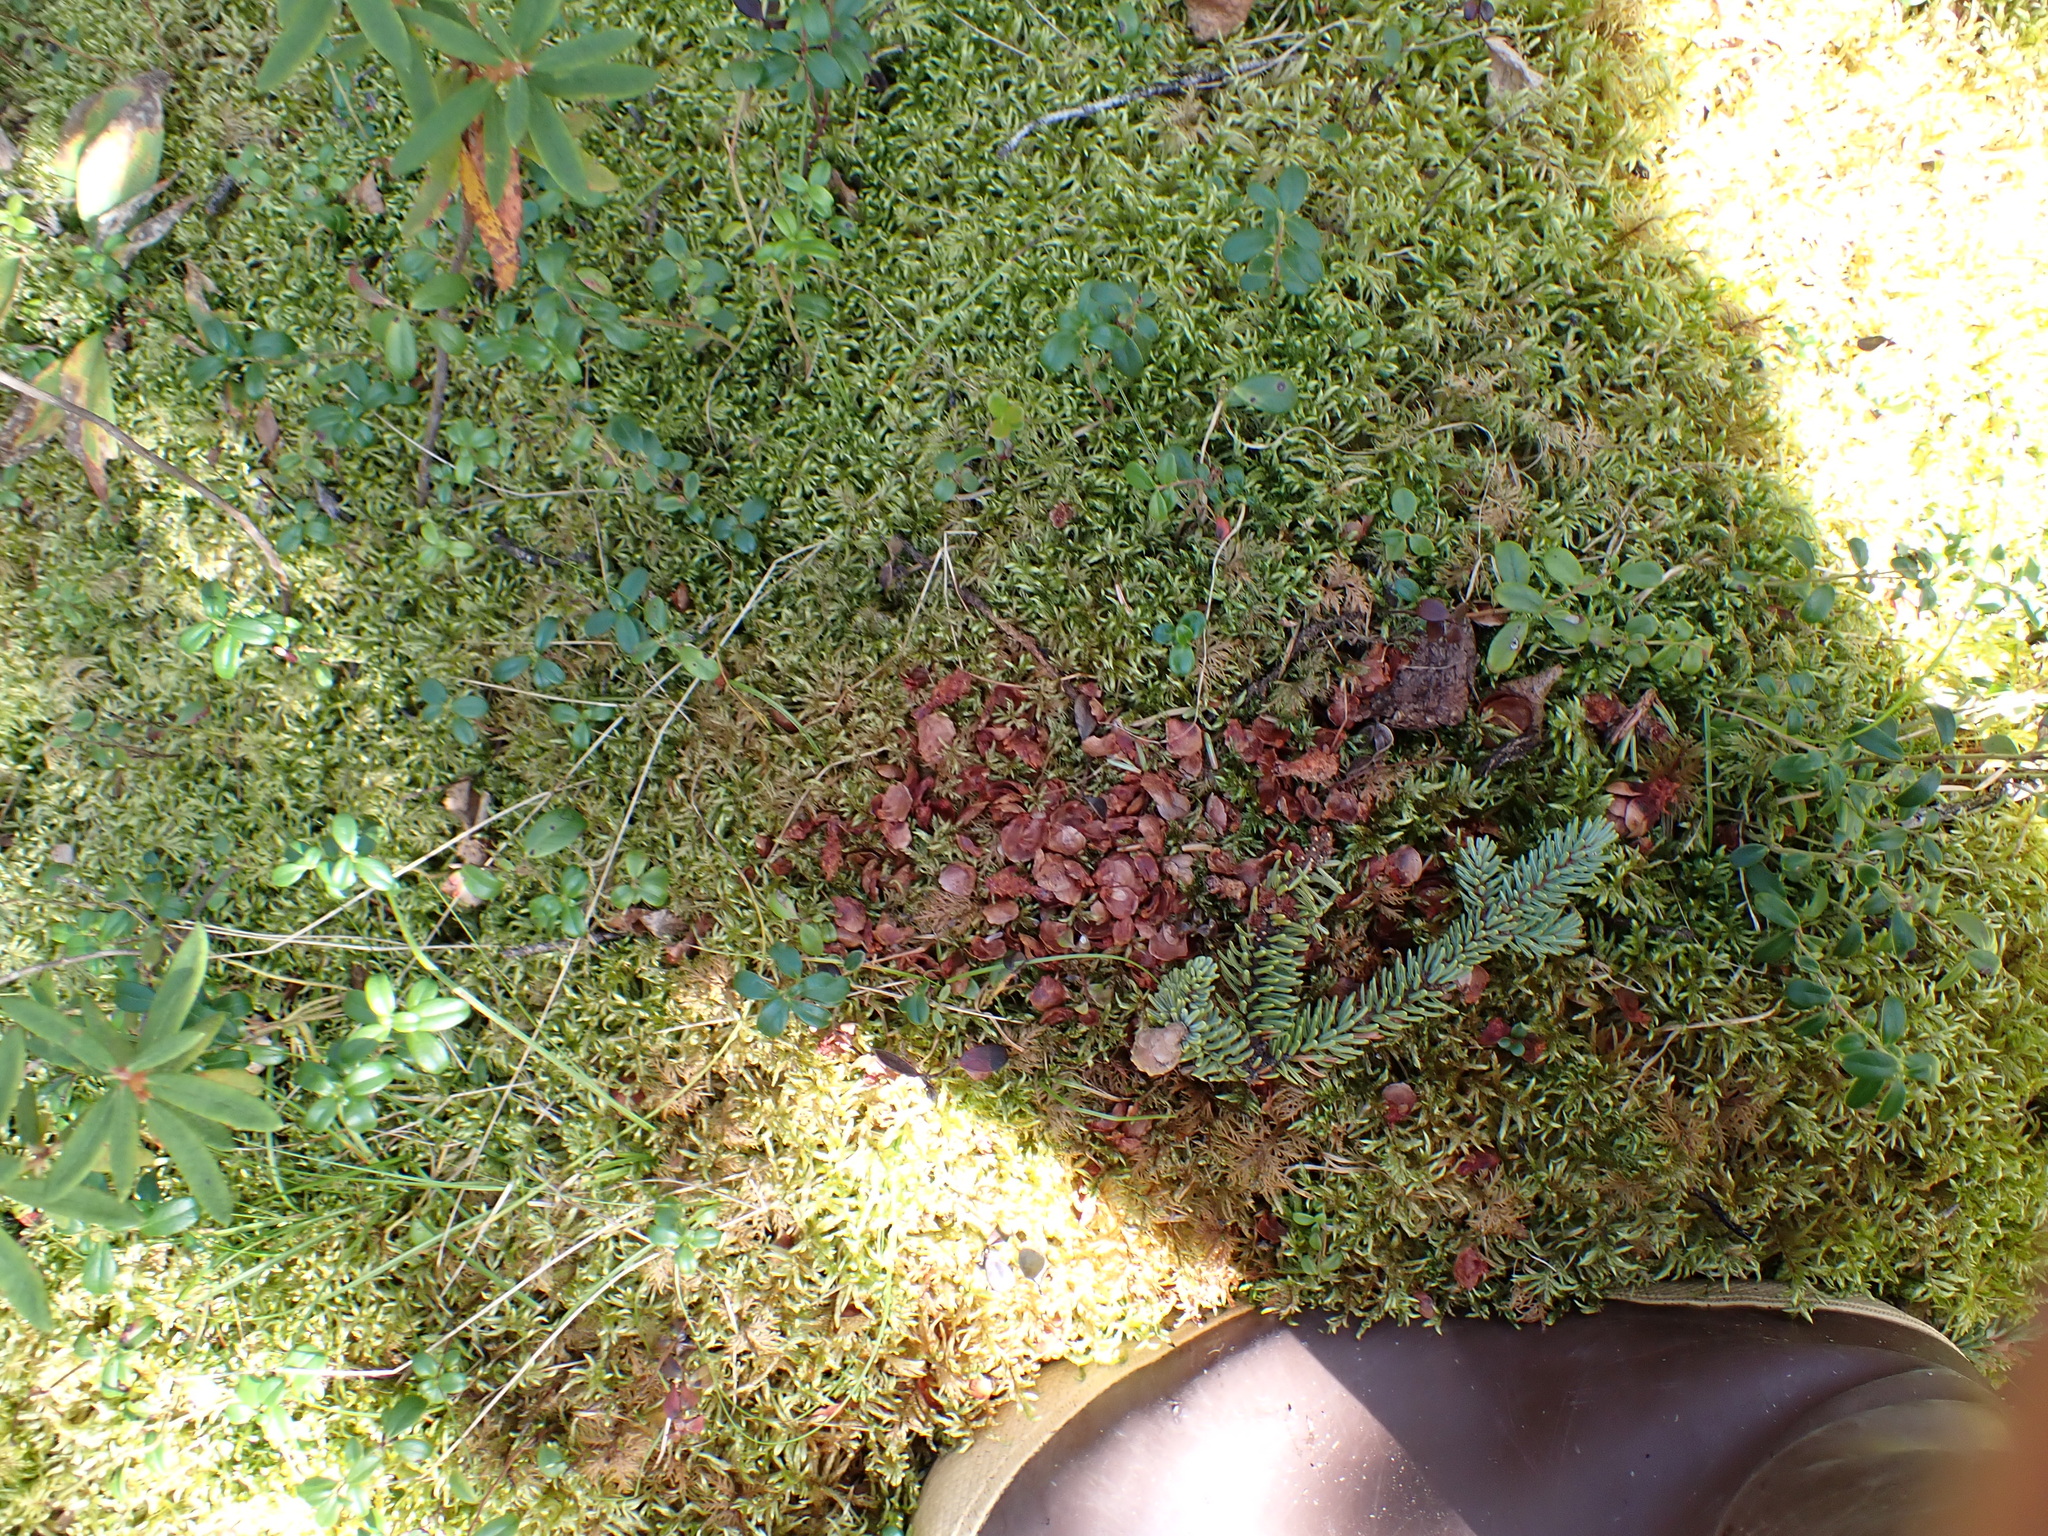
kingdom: Animalia
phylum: Chordata
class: Mammalia
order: Rodentia
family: Sciuridae
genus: Tamiasciurus
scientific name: Tamiasciurus hudsonicus
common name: Red squirrel
